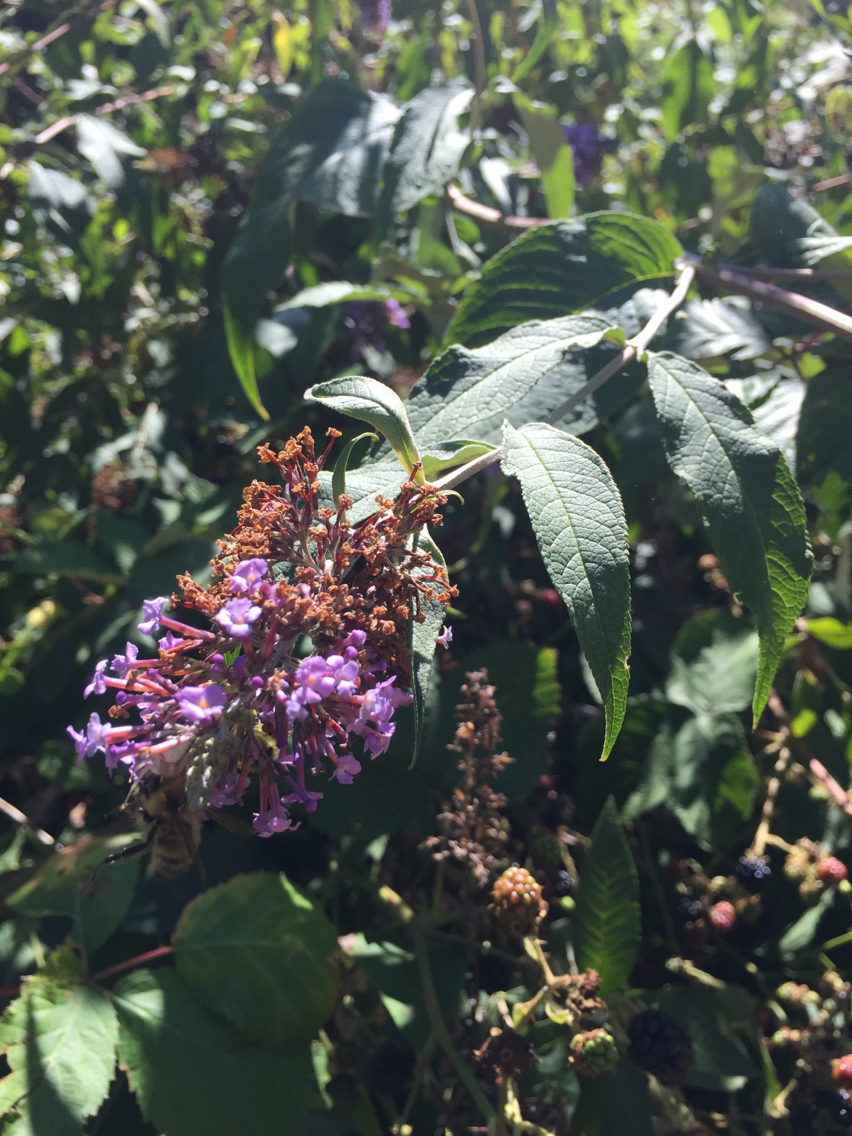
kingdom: Plantae
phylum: Tracheophyta
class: Magnoliopsida
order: Lamiales
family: Scrophulariaceae
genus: Buddleja
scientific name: Buddleja davidii
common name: Butterfly-bush
